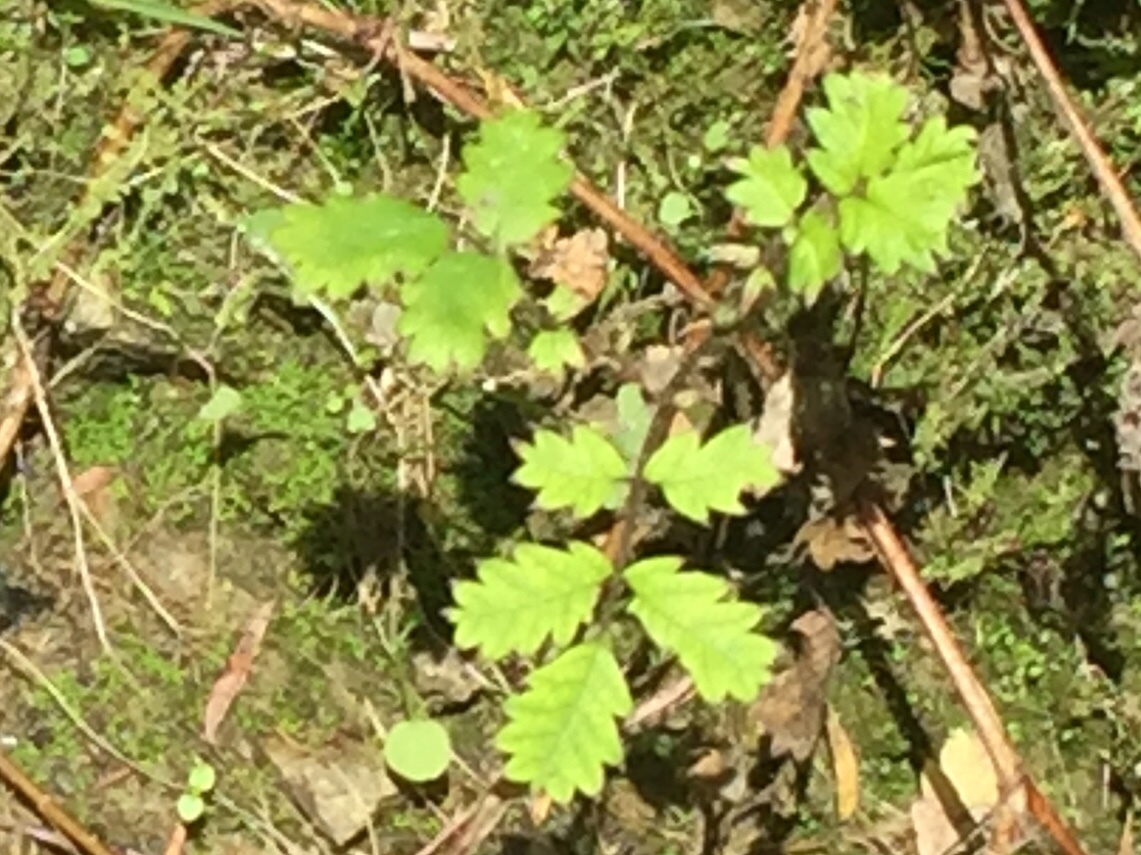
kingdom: Plantae
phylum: Tracheophyta
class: Magnoliopsida
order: Rosales
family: Rosaceae
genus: Acaena
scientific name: Acaena juvenca
